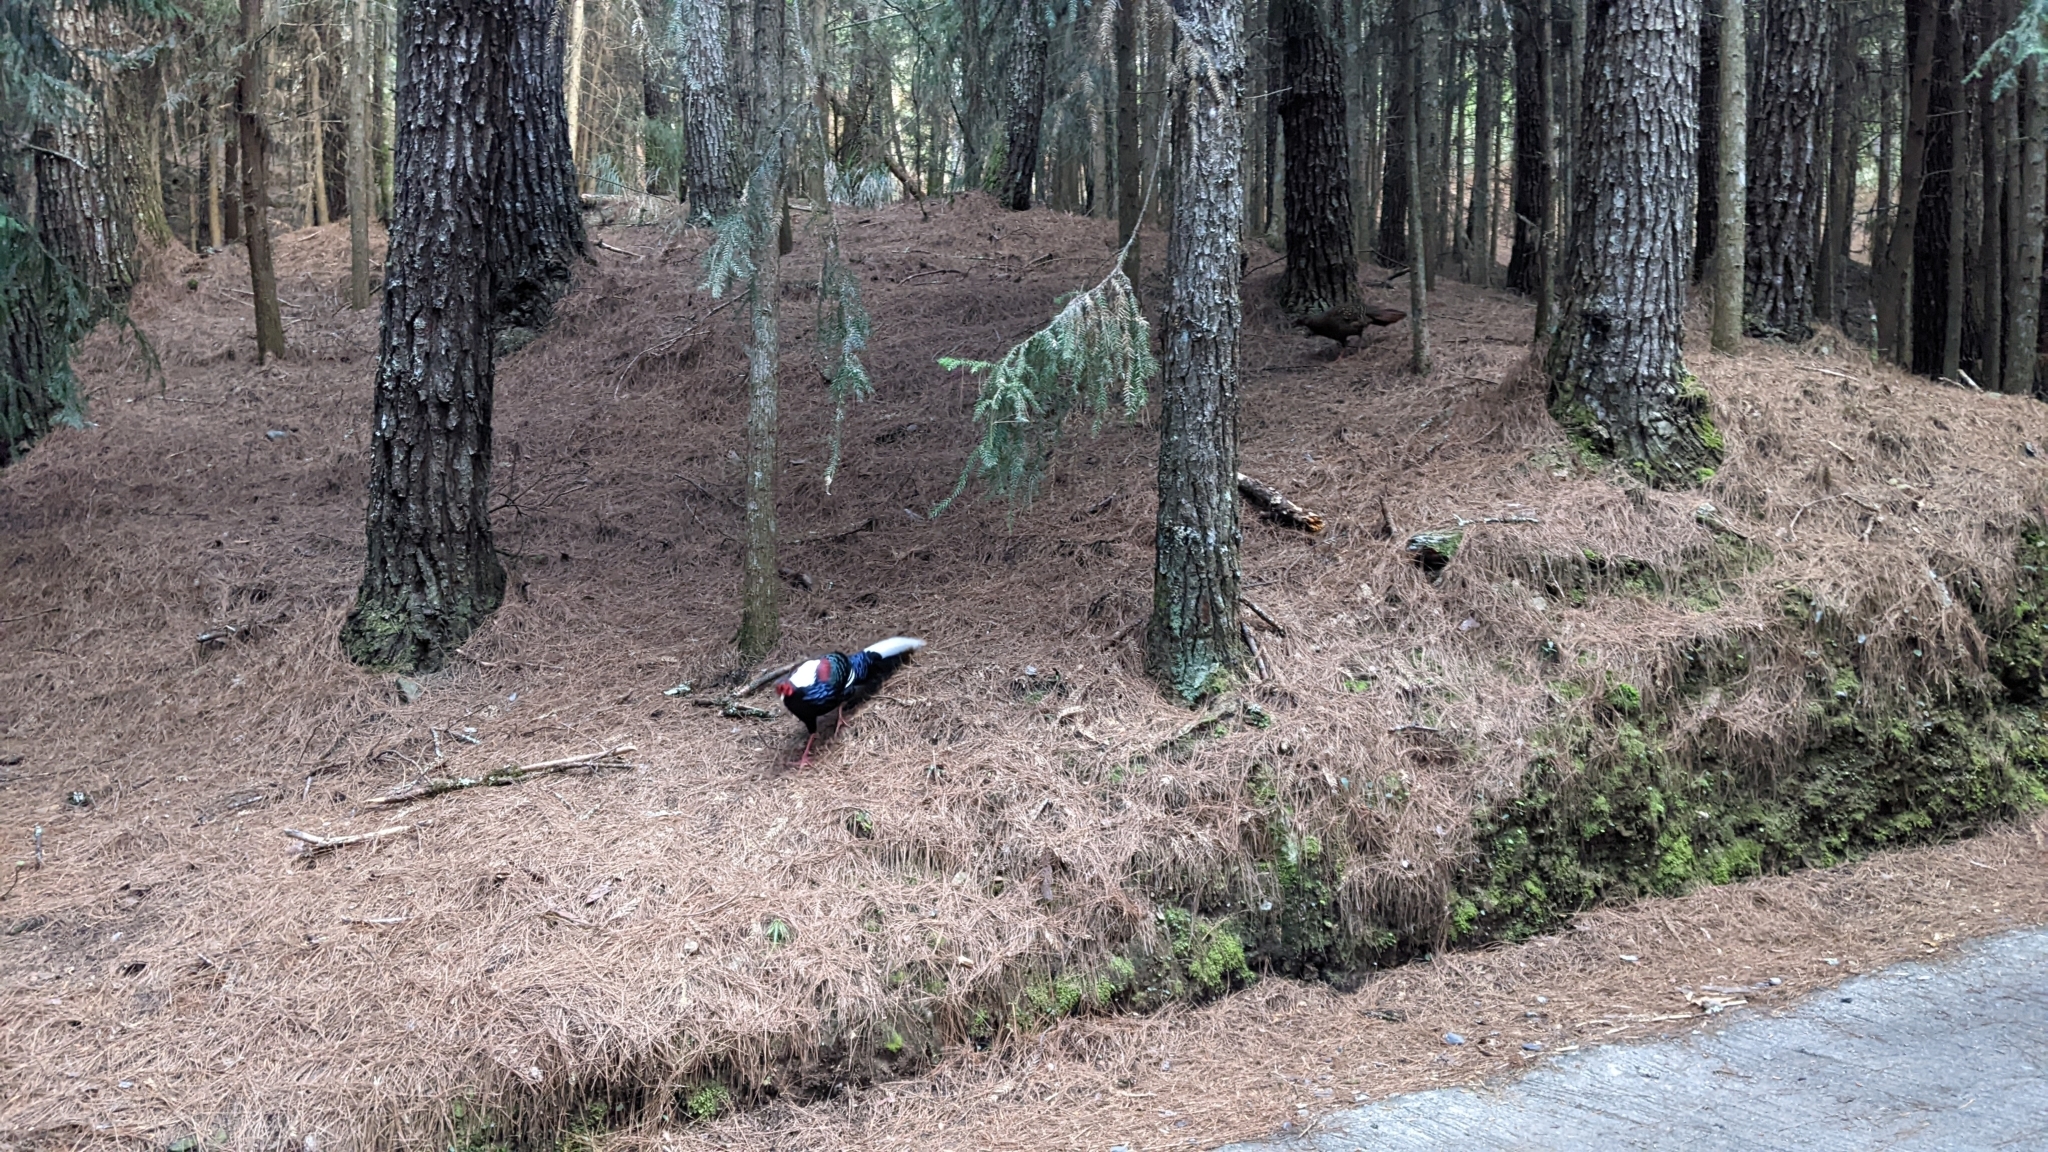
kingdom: Animalia
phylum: Chordata
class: Aves
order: Galliformes
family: Phasianidae
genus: Lophura
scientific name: Lophura swinhoii
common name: Swinhoe's pheasant
